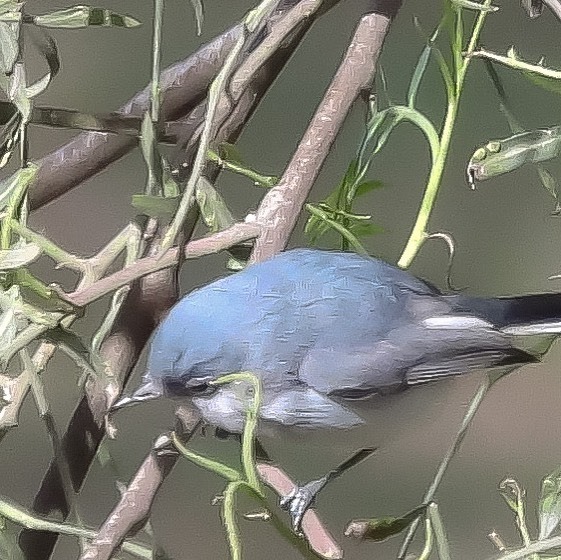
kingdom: Animalia
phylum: Chordata
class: Aves
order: Passeriformes
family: Polioptilidae
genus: Polioptila
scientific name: Polioptila caerulea
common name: Blue-gray gnatcatcher
